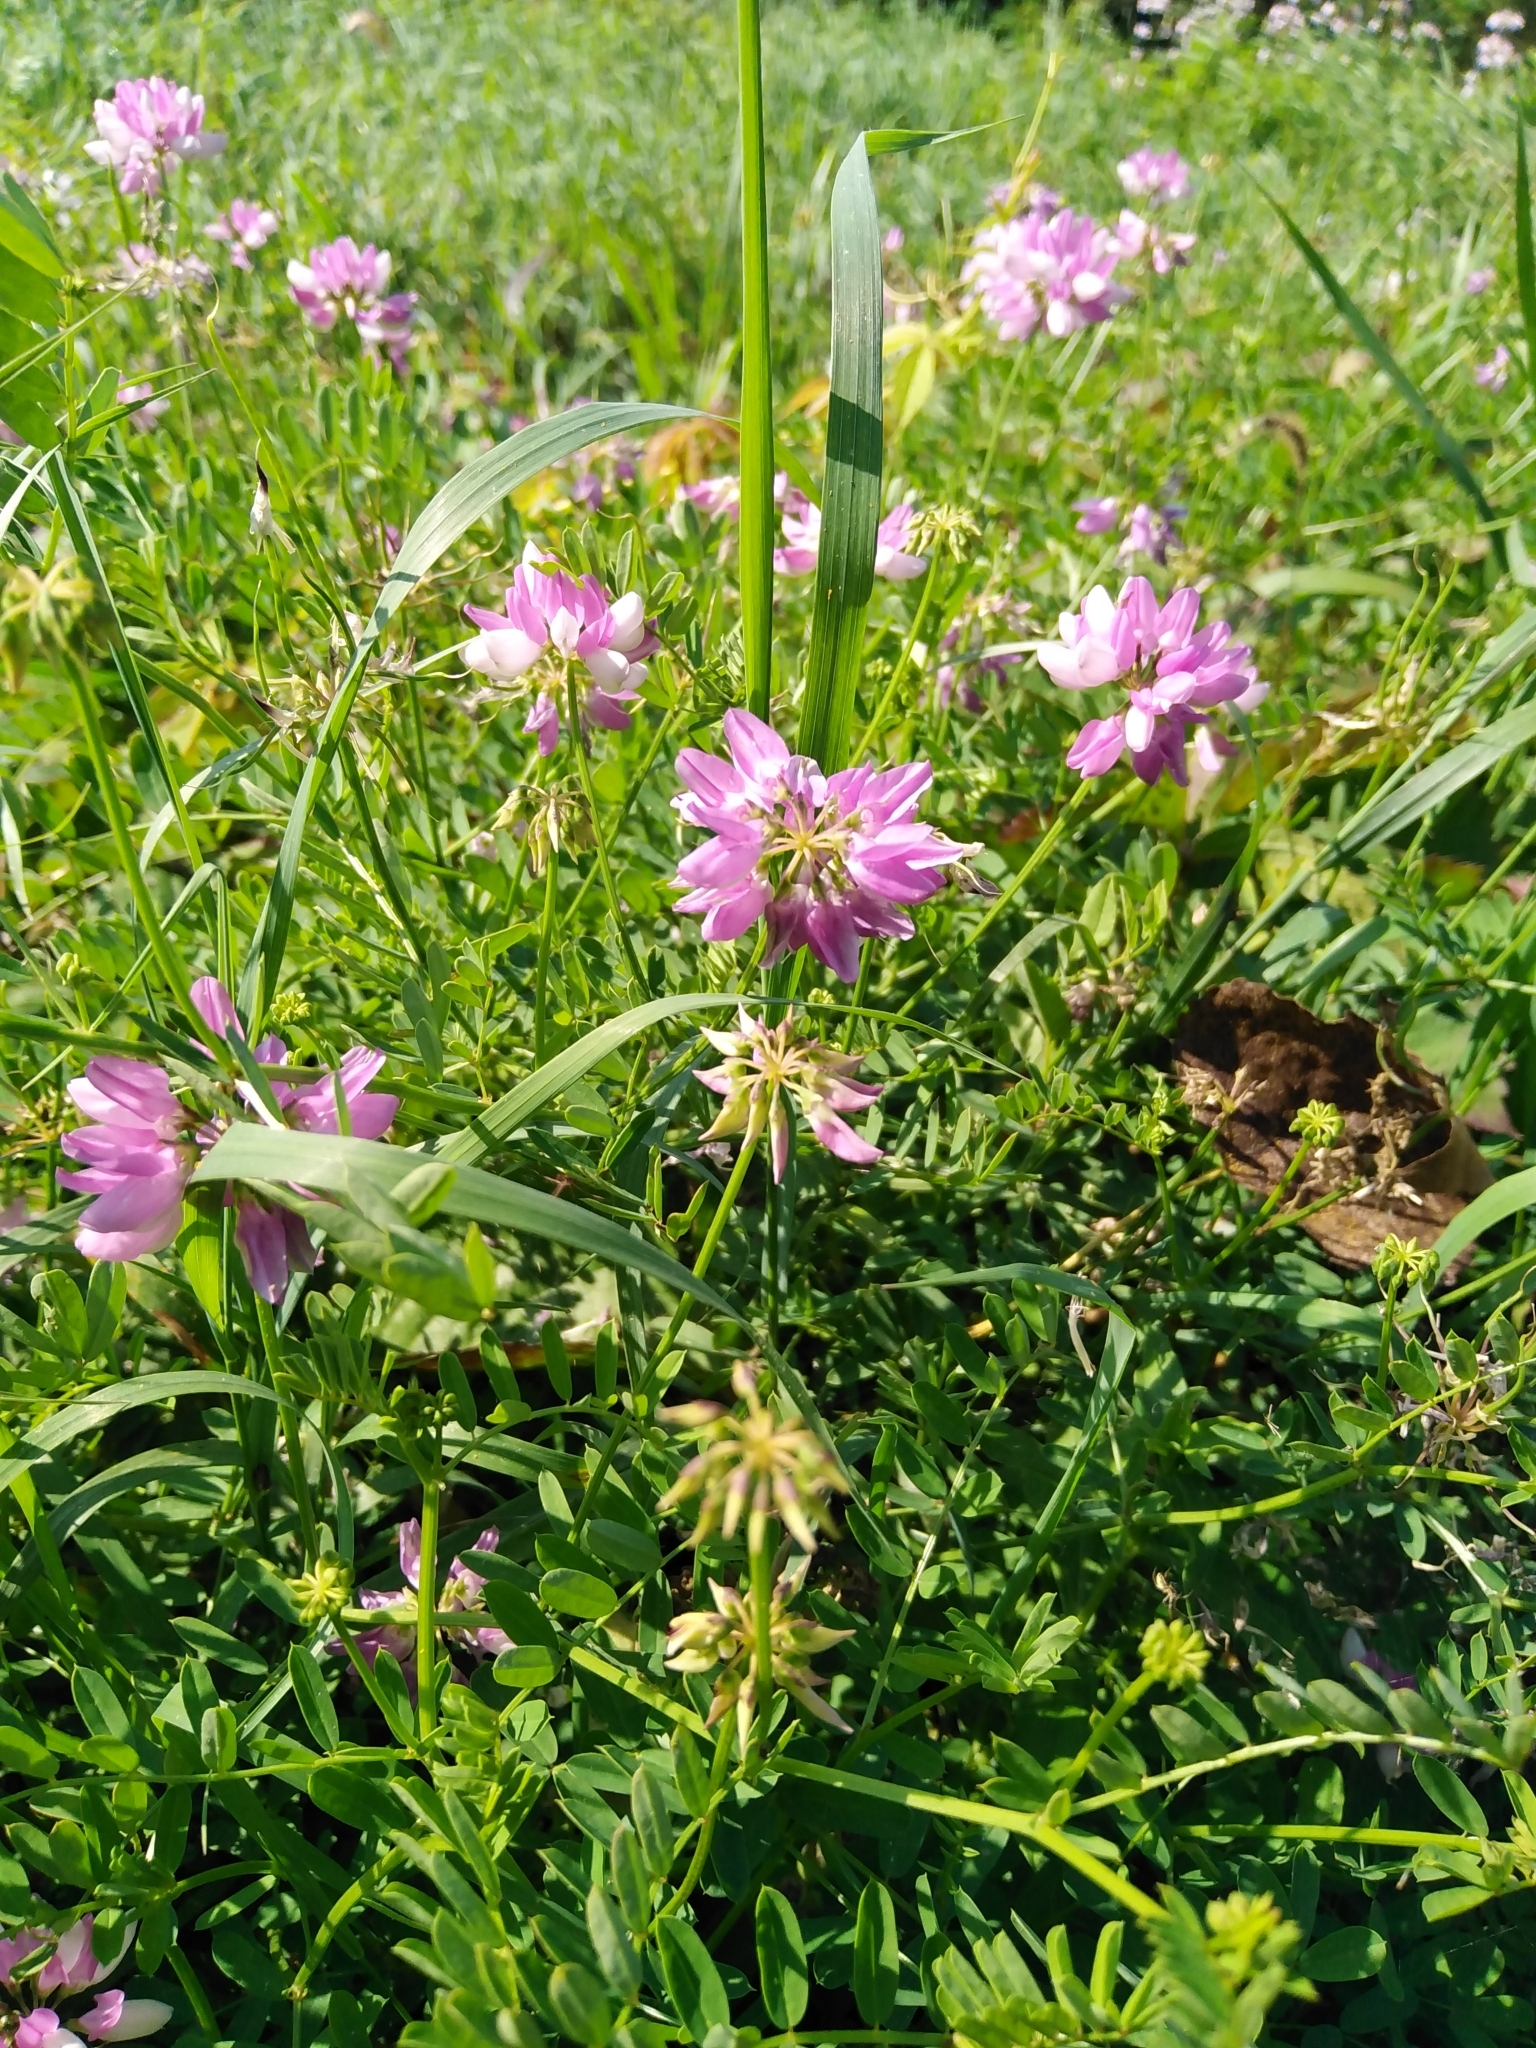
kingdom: Plantae
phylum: Tracheophyta
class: Magnoliopsida
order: Fabales
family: Fabaceae
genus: Coronilla
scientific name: Coronilla varia
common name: Crownvetch
